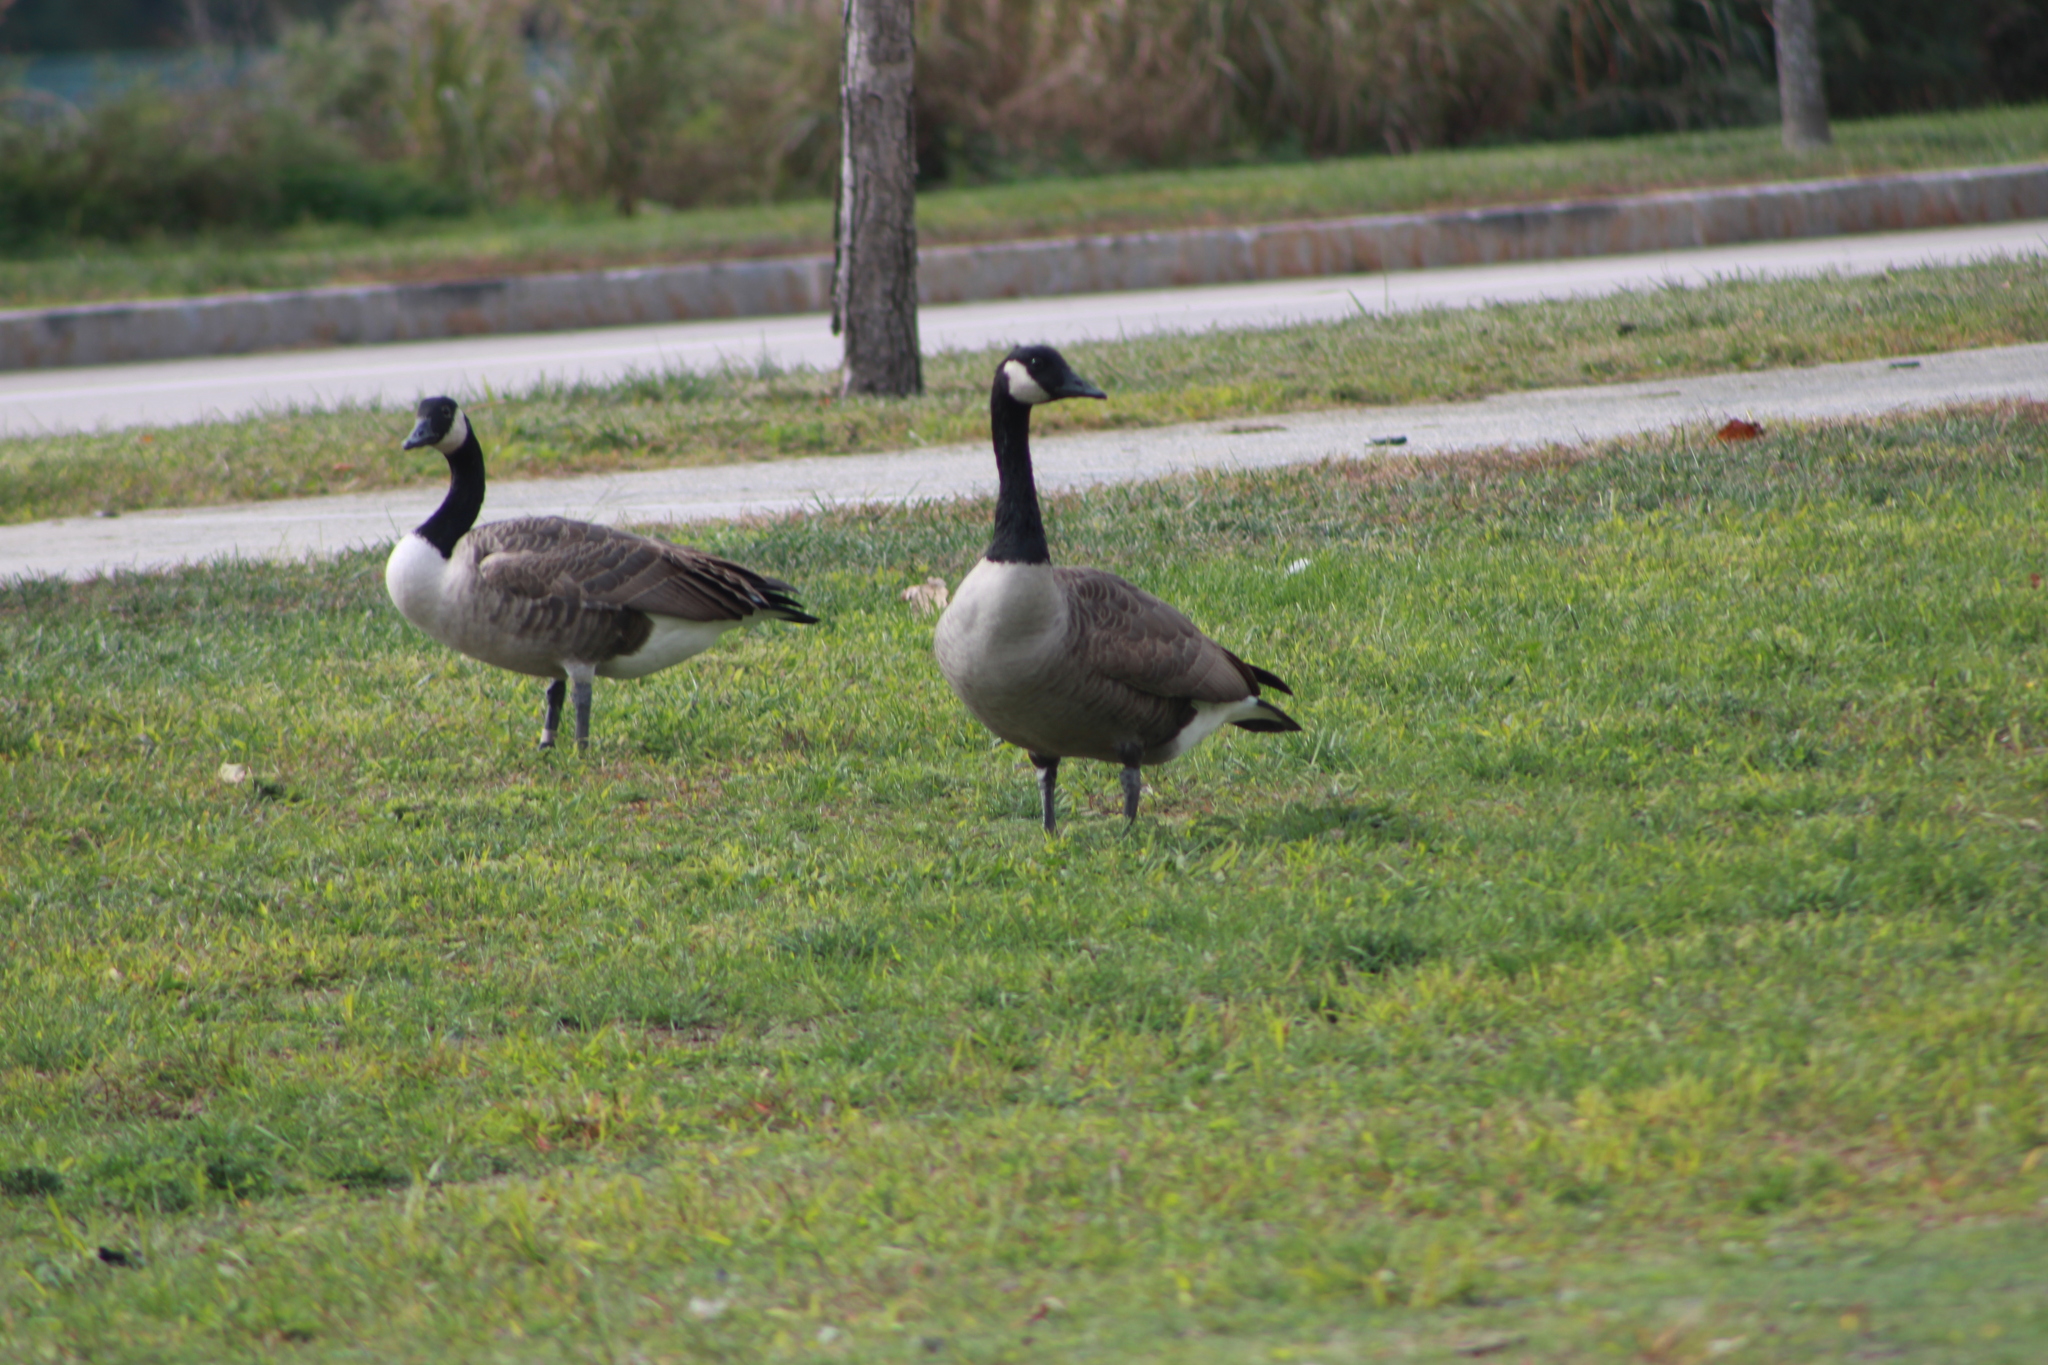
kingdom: Animalia
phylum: Chordata
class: Aves
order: Anseriformes
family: Anatidae
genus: Branta
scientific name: Branta canadensis
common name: Canada goose
